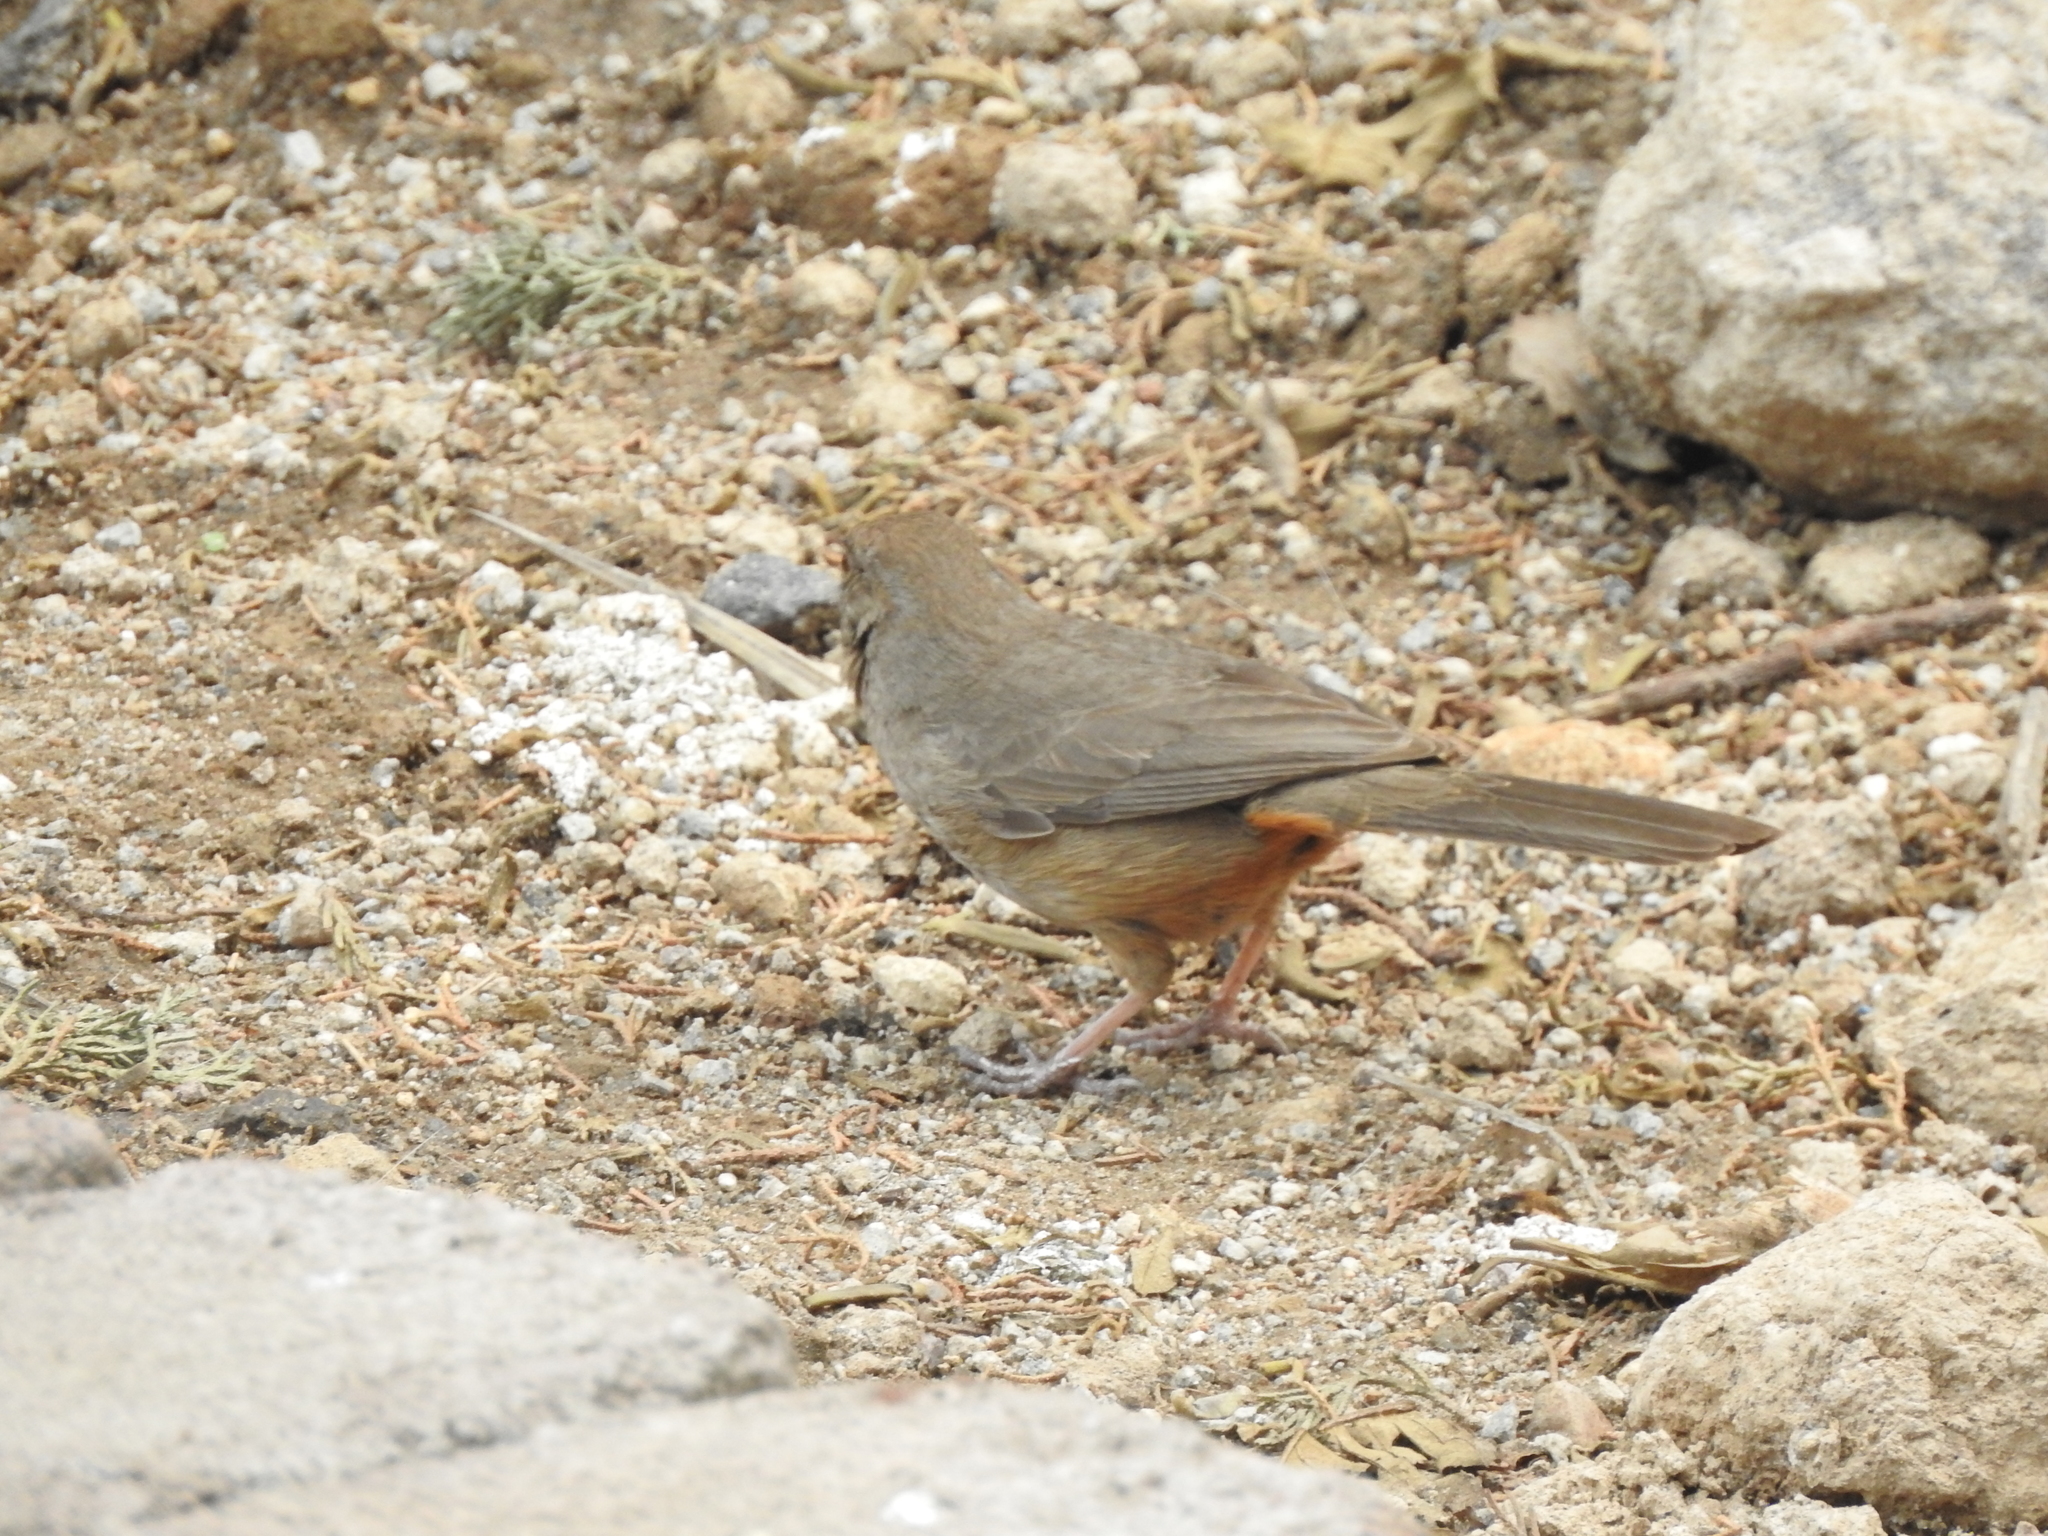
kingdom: Animalia
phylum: Chordata
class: Aves
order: Passeriformes
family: Passerellidae
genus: Melozone
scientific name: Melozone fusca
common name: Canyon towhee
